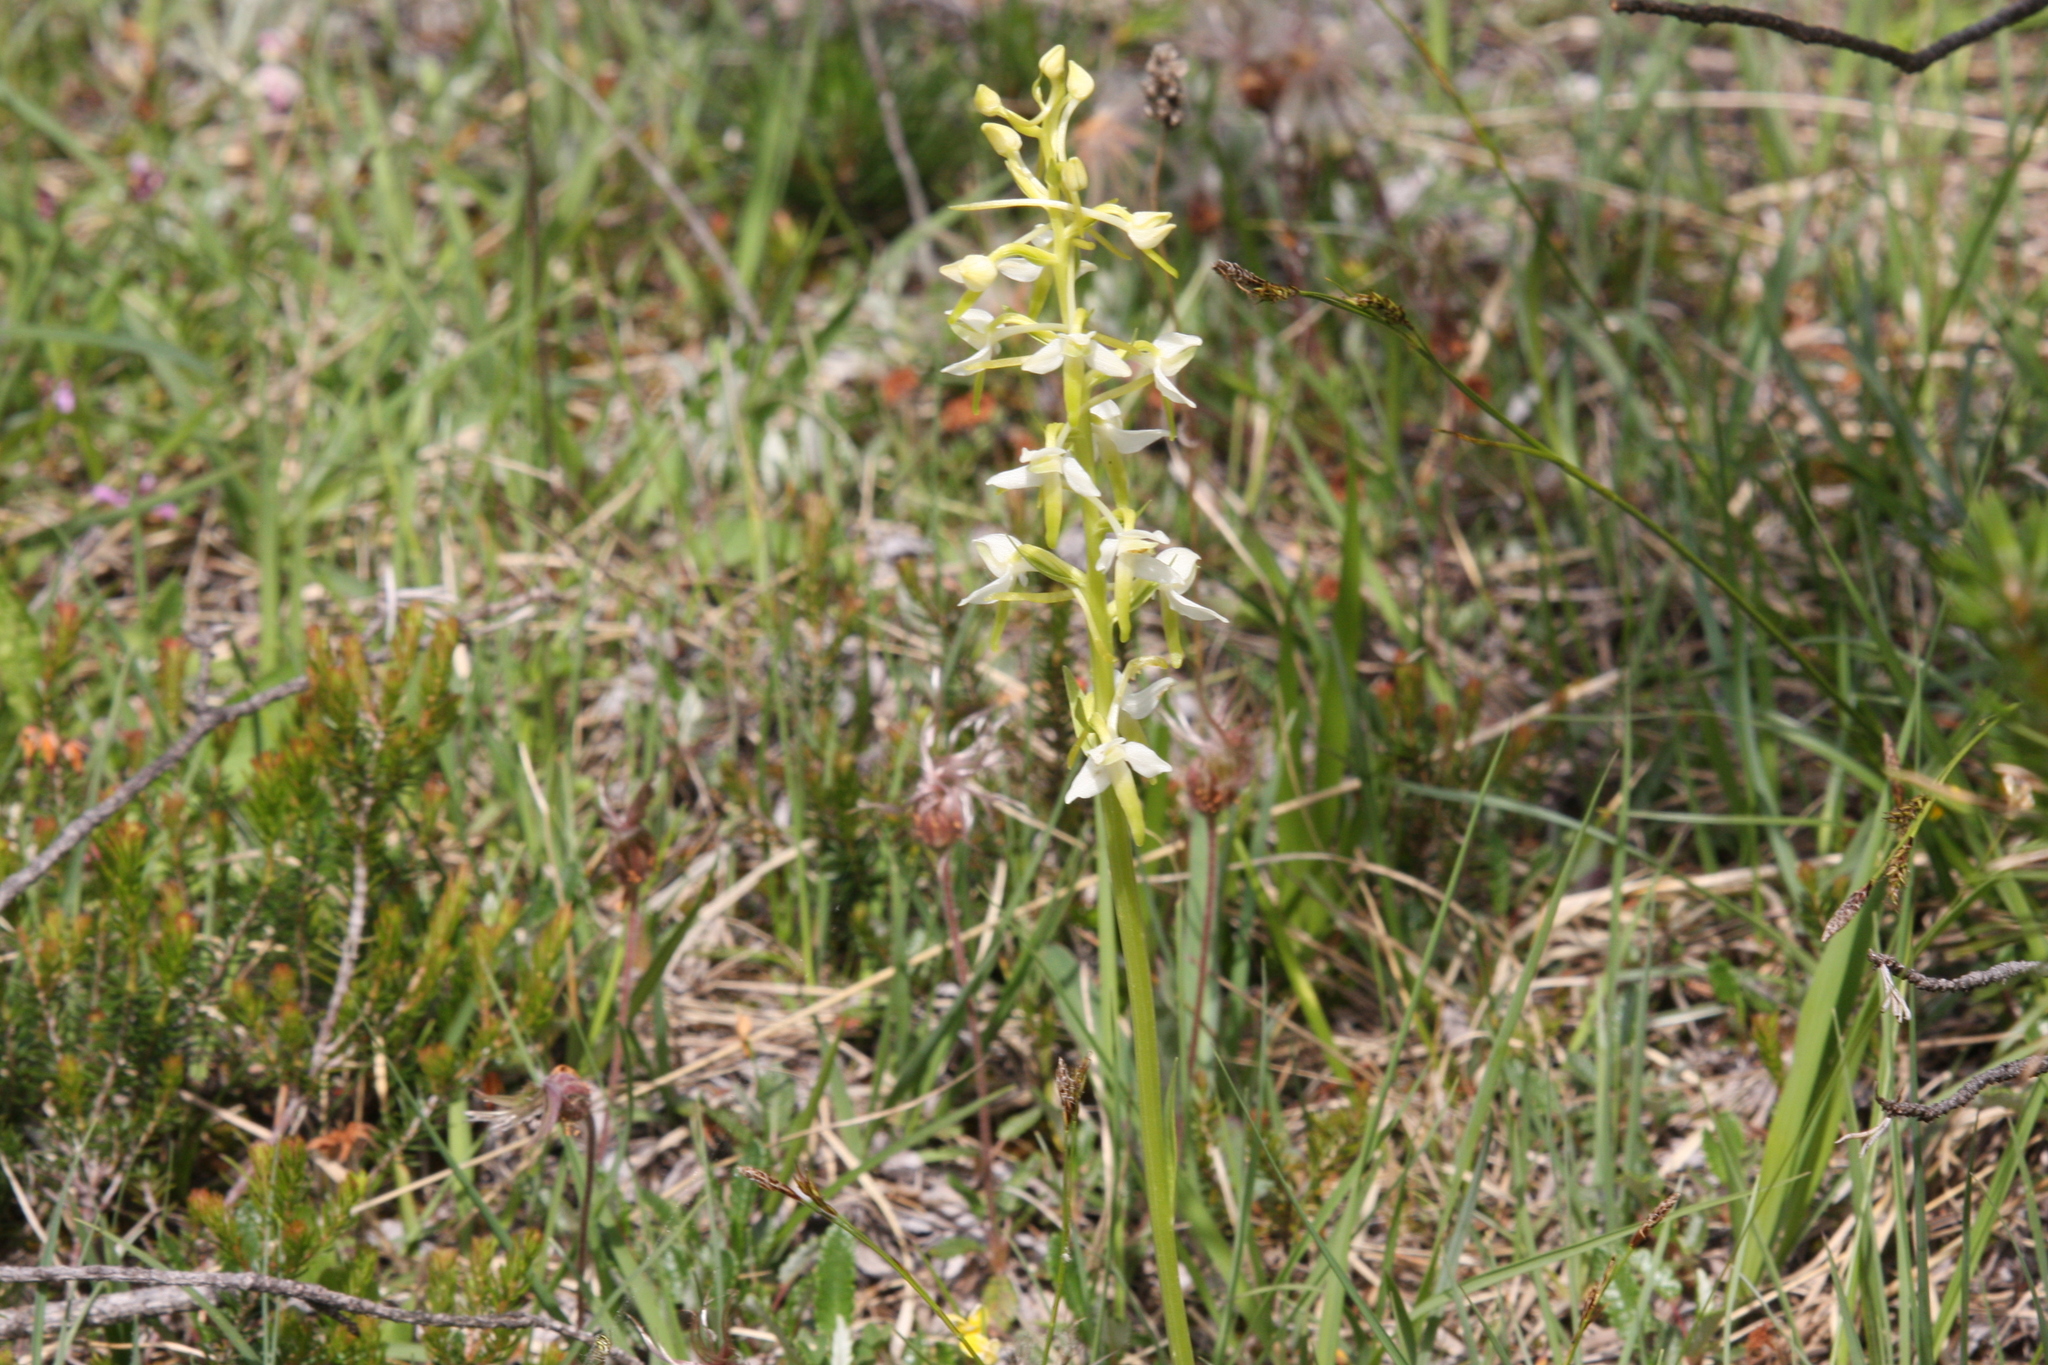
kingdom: Plantae
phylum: Tracheophyta
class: Liliopsida
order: Asparagales
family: Orchidaceae
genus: Platanthera
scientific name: Platanthera bifolia
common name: Lesser butterfly-orchid
